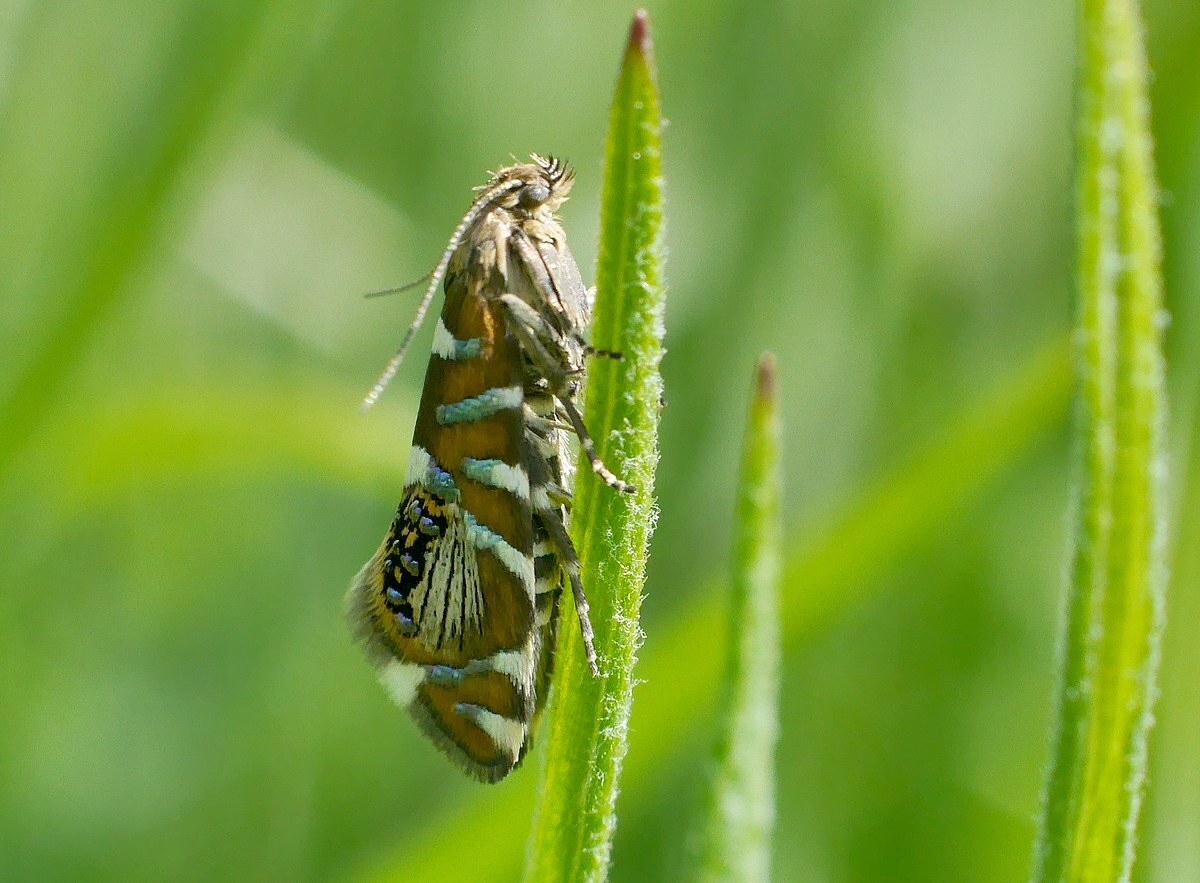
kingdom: Animalia
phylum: Arthropoda
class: Insecta
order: Lepidoptera
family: Glyphipterigidae
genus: Glyphipterix
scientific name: Glyphipterix loricatella
